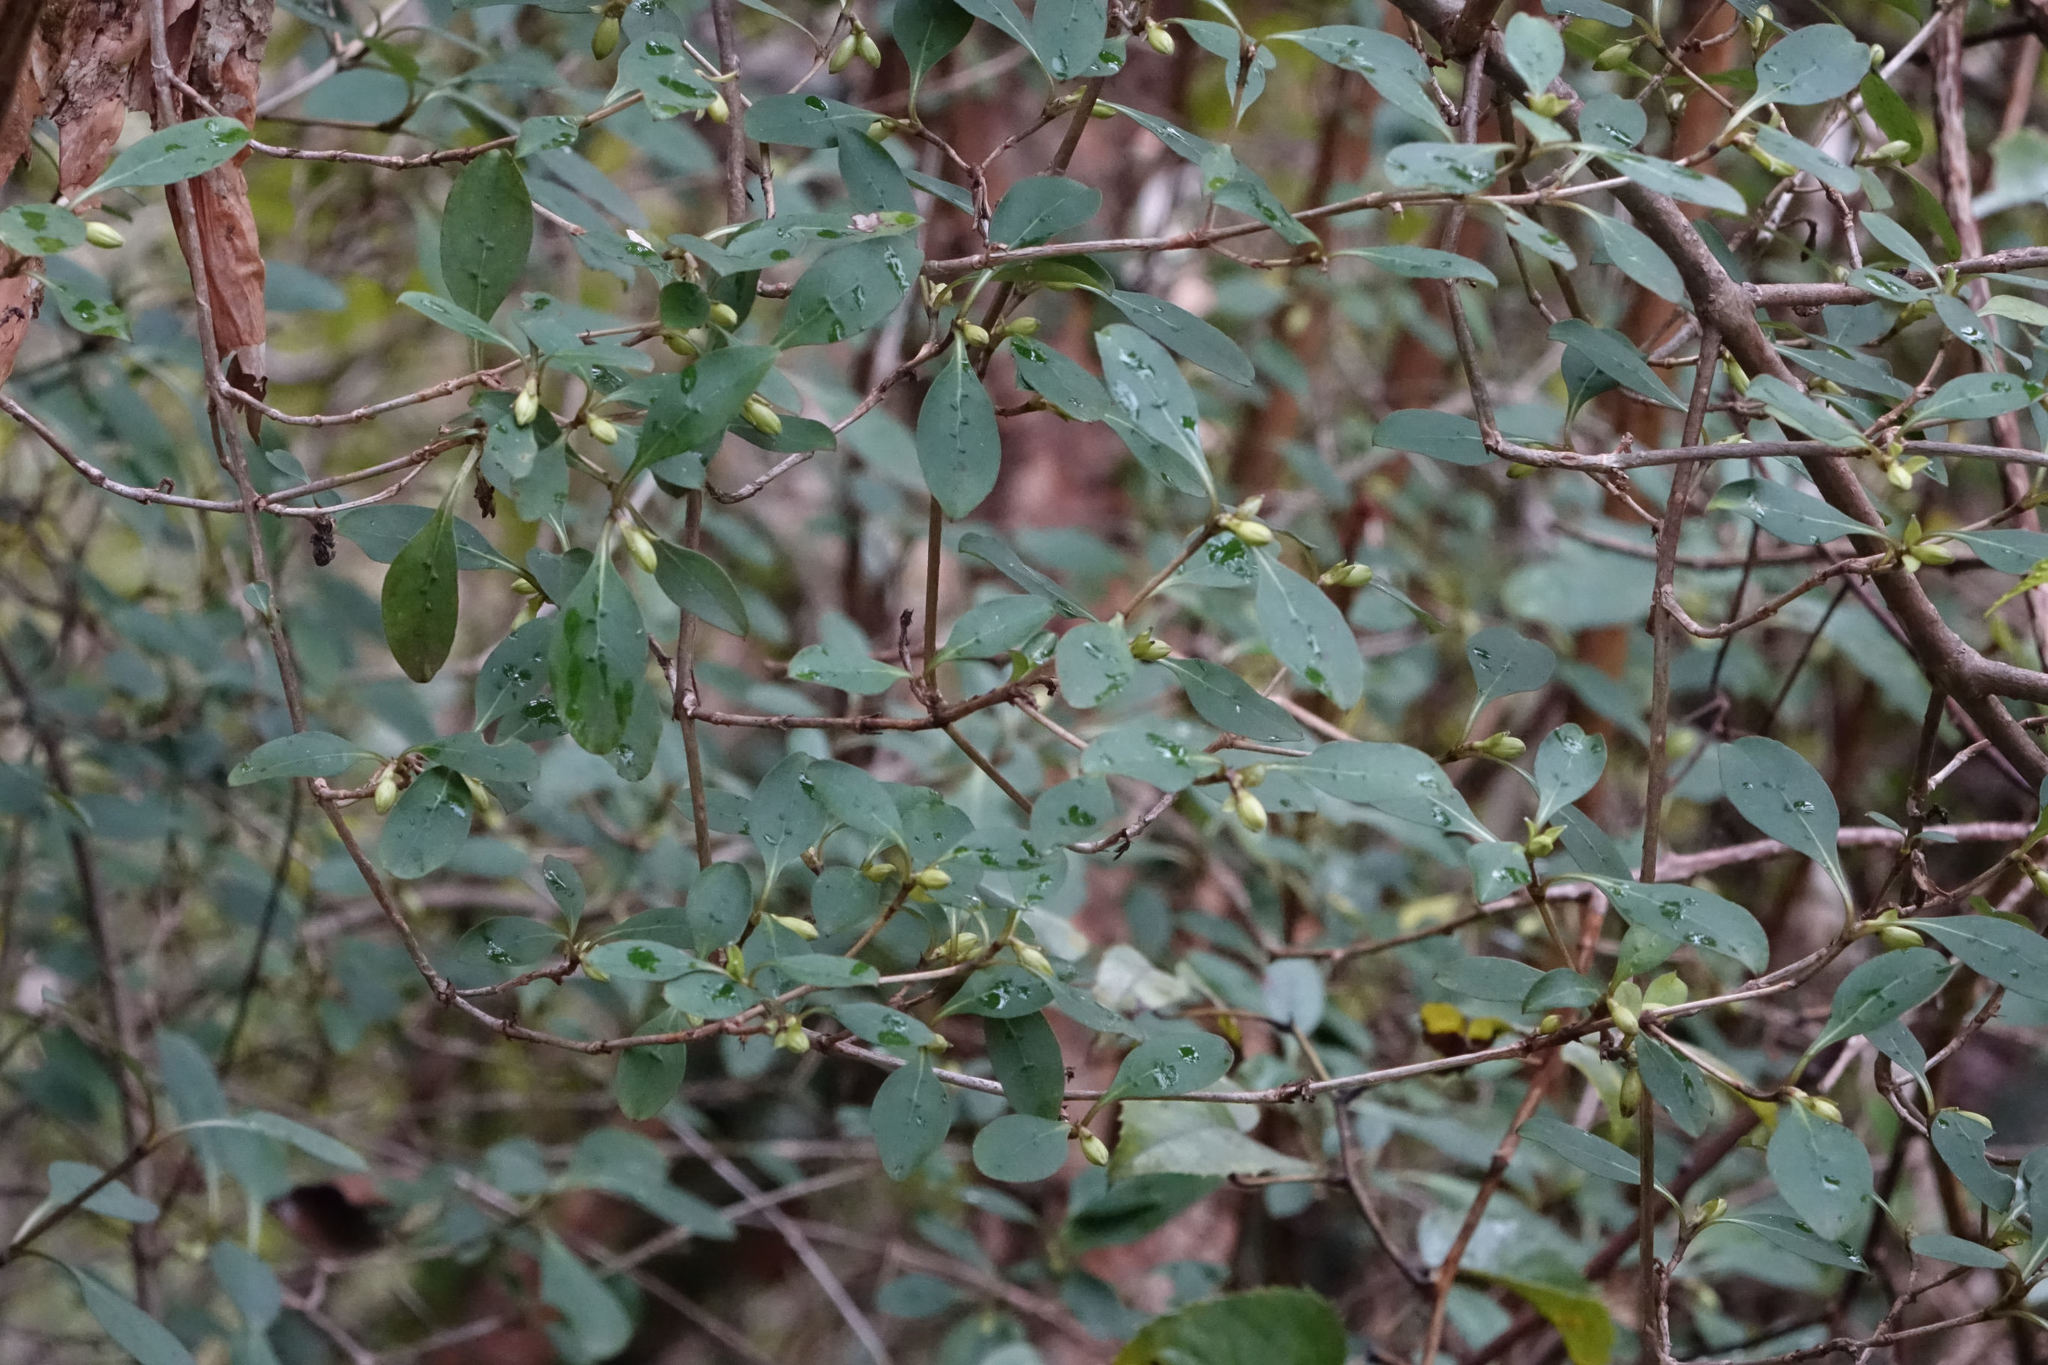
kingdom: Plantae
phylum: Tracheophyta
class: Magnoliopsida
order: Gentianales
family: Rubiaceae
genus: Coprosma
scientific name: Coprosma foetidissima
